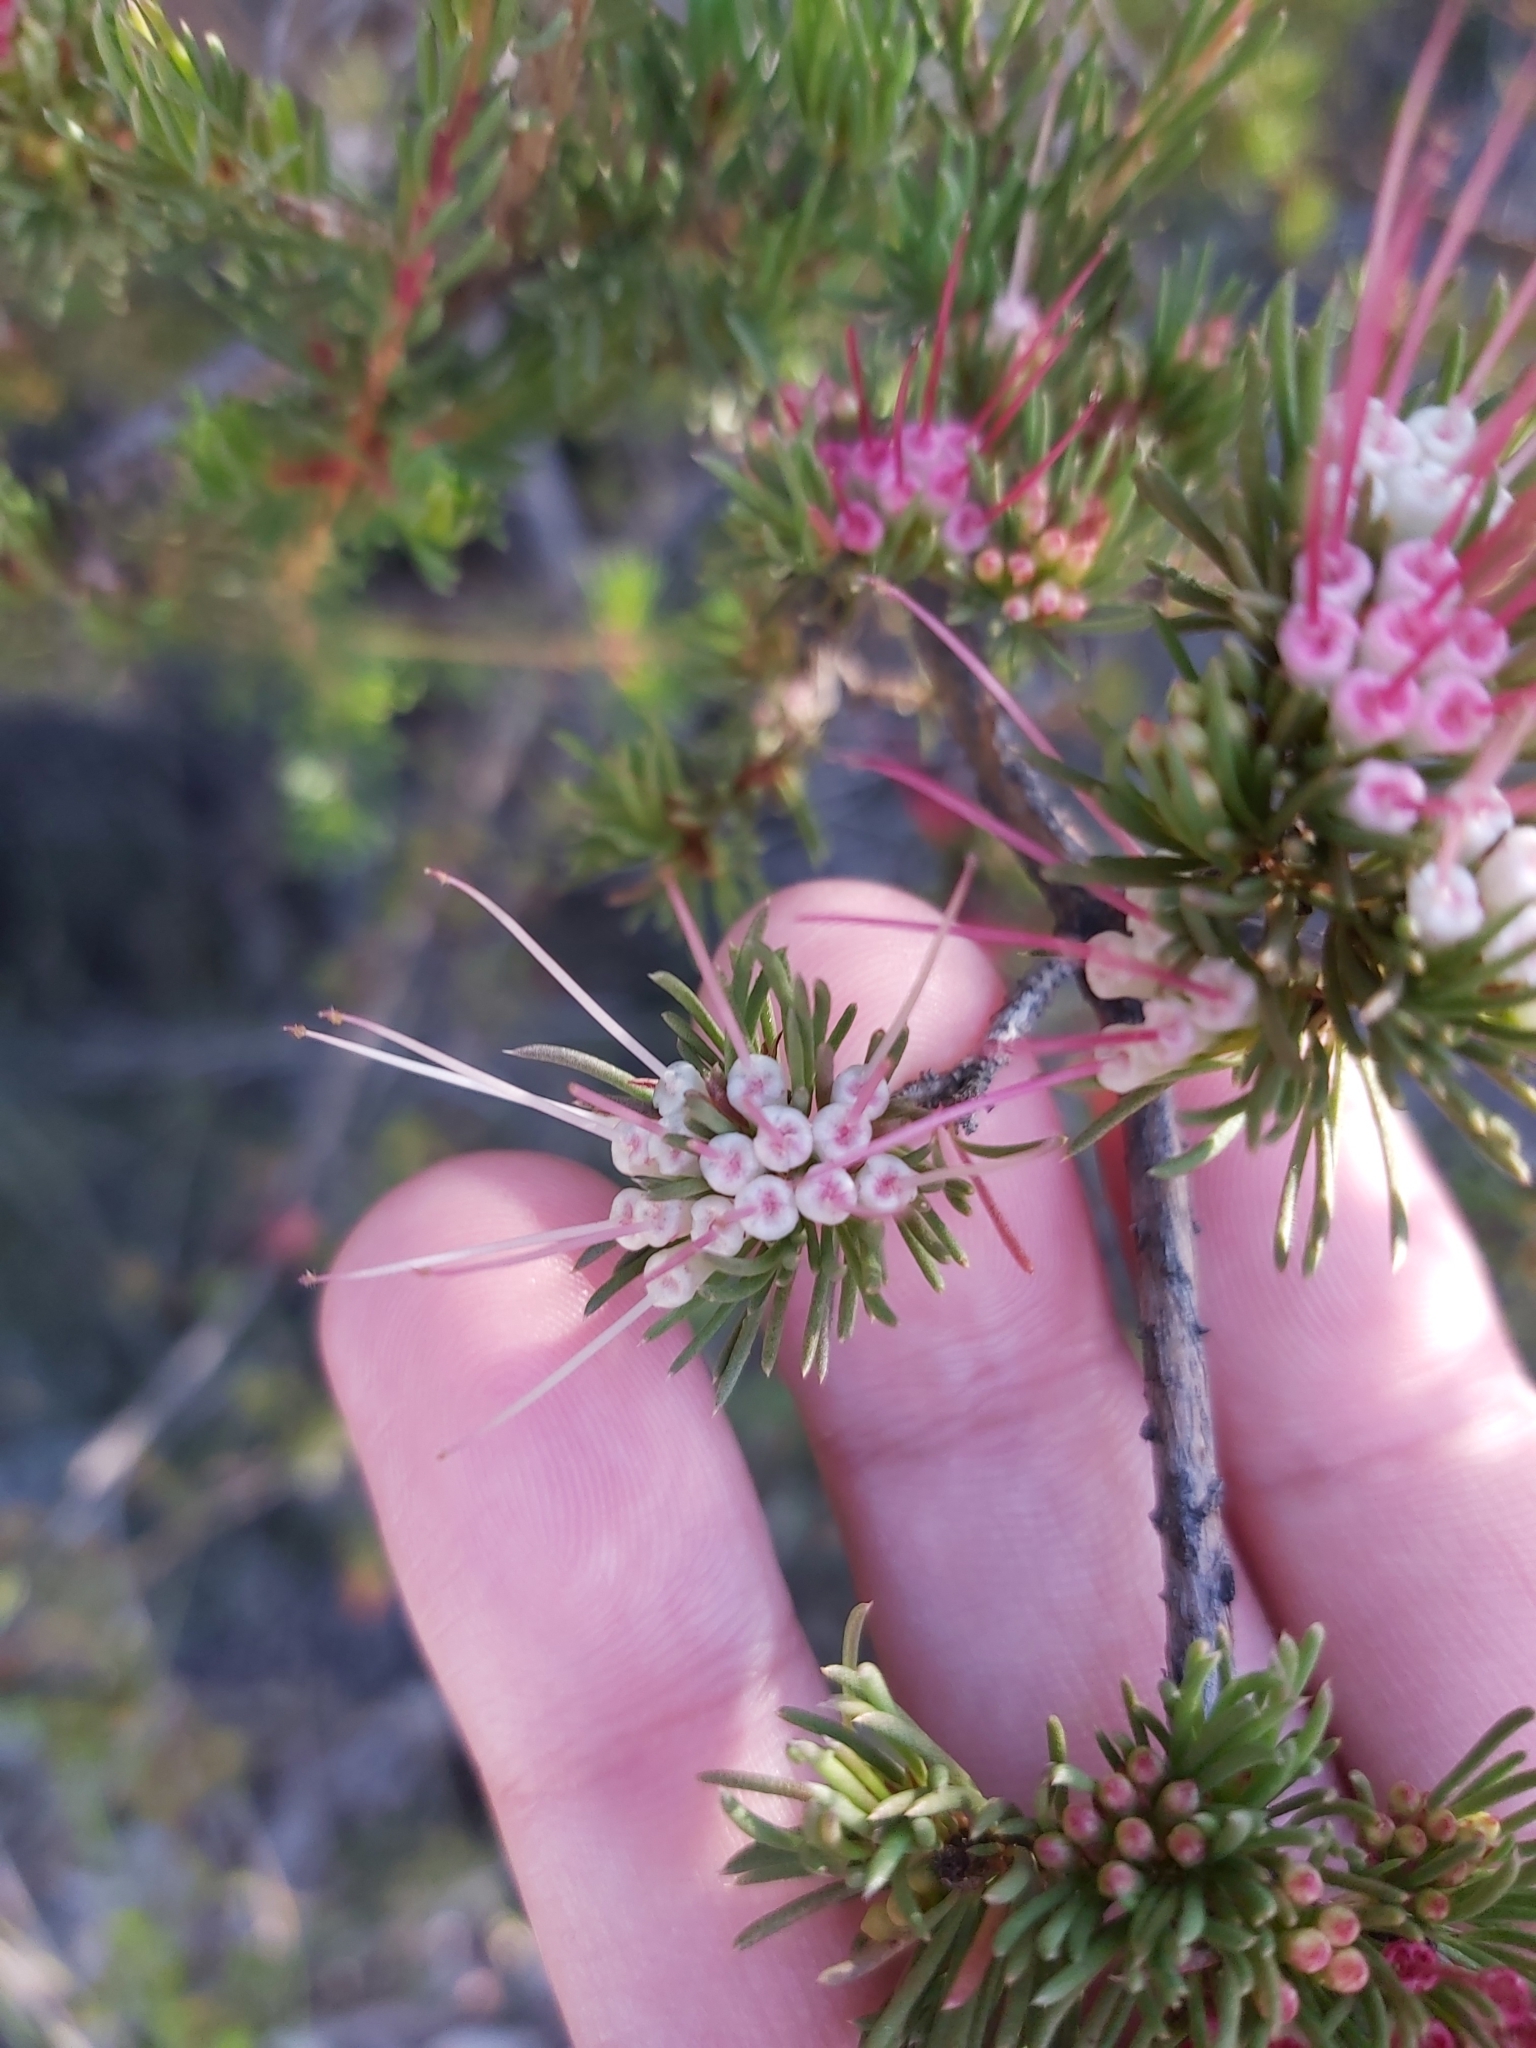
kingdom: Plantae
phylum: Tracheophyta
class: Magnoliopsida
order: Myrtales
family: Myrtaceae
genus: Darwinia
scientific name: Darwinia fascicularis
